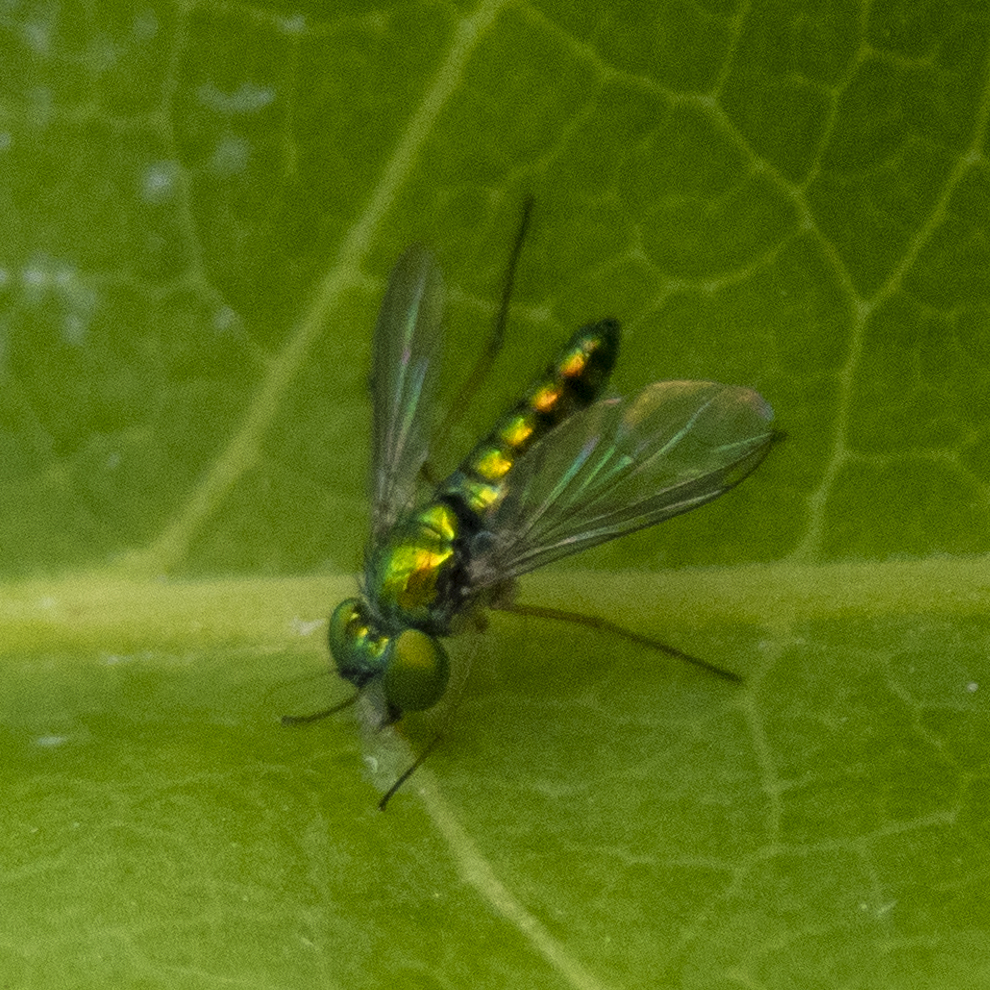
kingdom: Animalia
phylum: Arthropoda
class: Insecta
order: Diptera
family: Dolichopodidae
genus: Condylostylus
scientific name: Condylostylus flavipes
